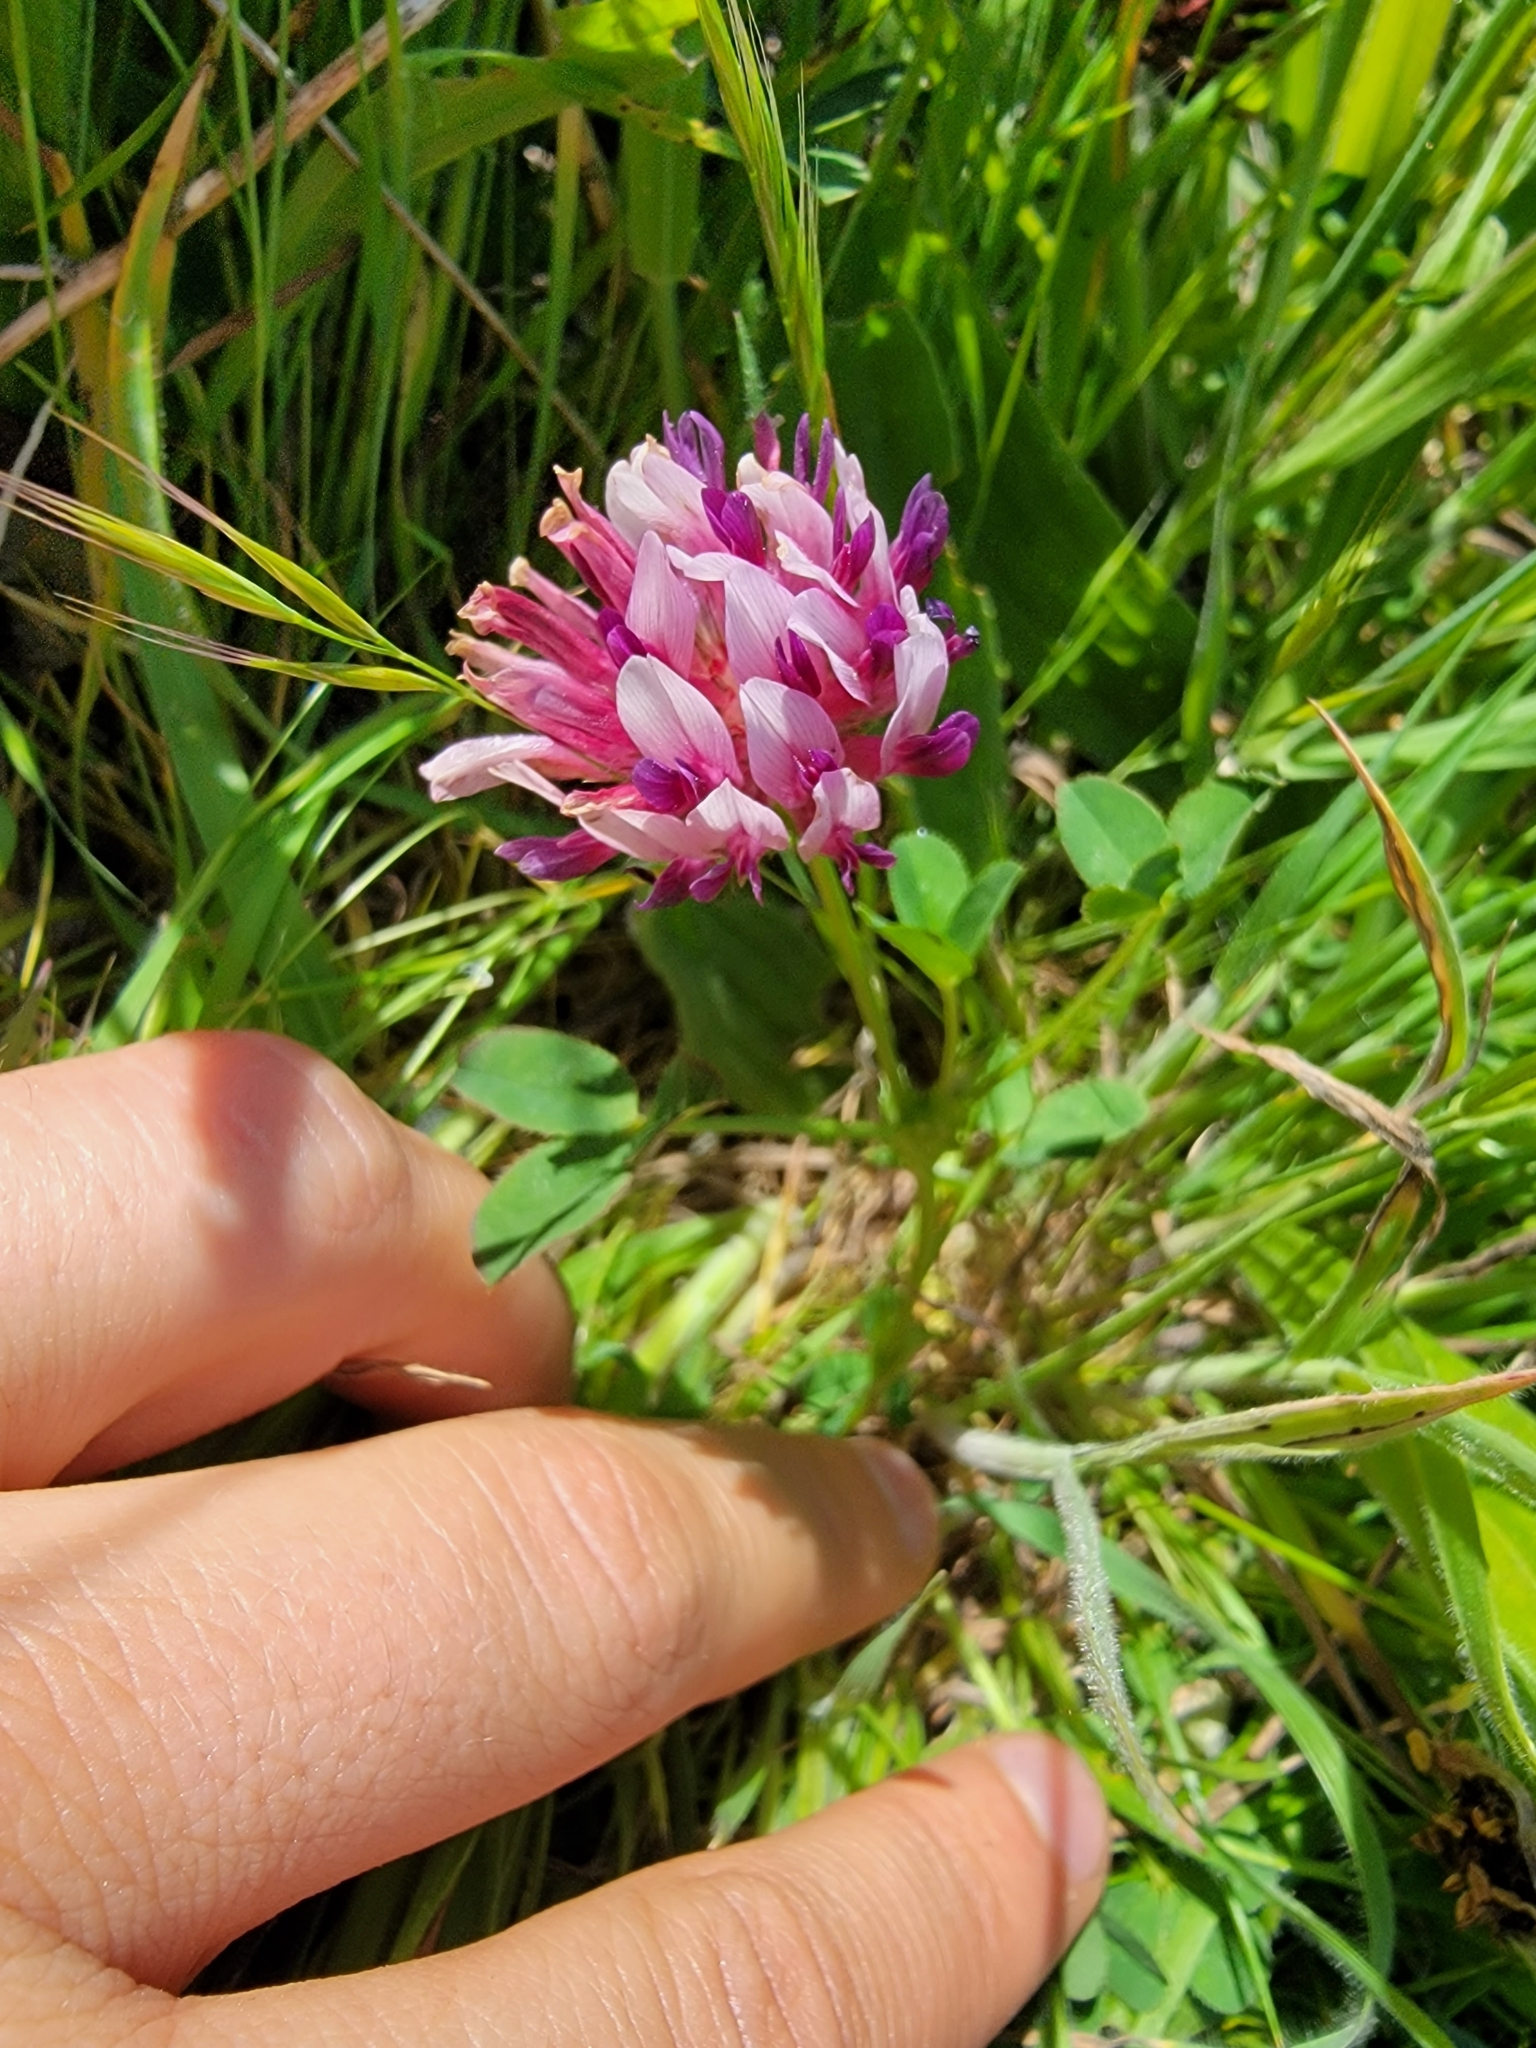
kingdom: Plantae
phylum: Tracheophyta
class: Magnoliopsida
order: Fabales
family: Fabaceae
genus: Trifolium
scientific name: Trifolium wormskioldii
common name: Springbank clover
